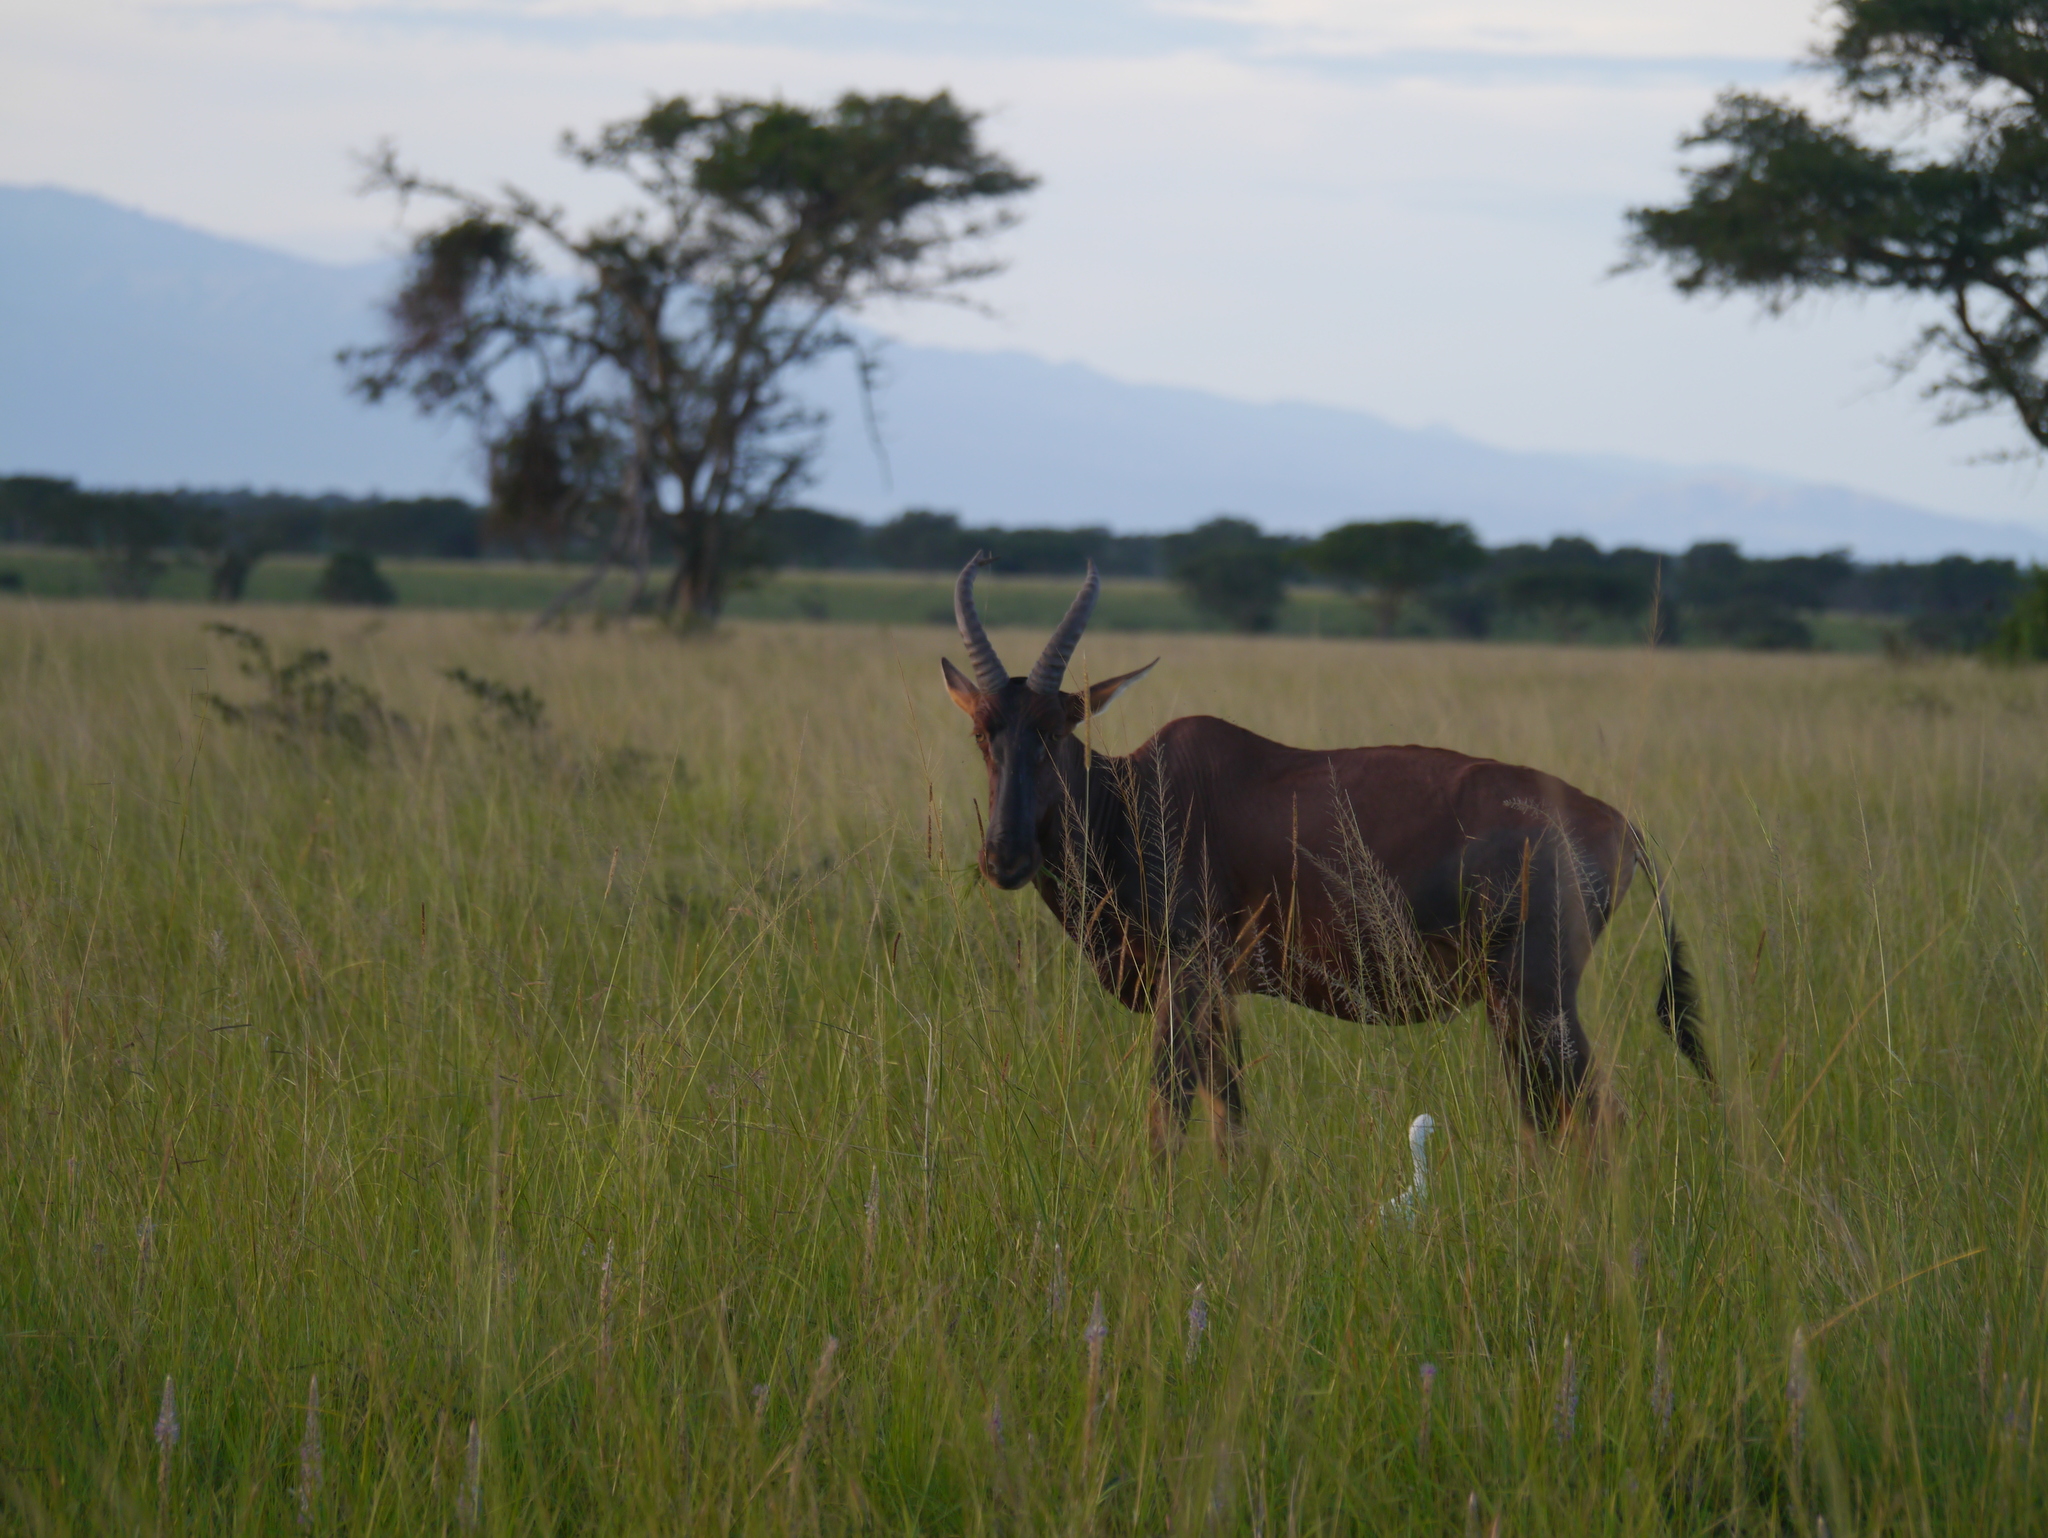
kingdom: Animalia
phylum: Chordata
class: Mammalia
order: Artiodactyla
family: Bovidae
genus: Damaliscus
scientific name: Damaliscus korrigum
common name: Topi
